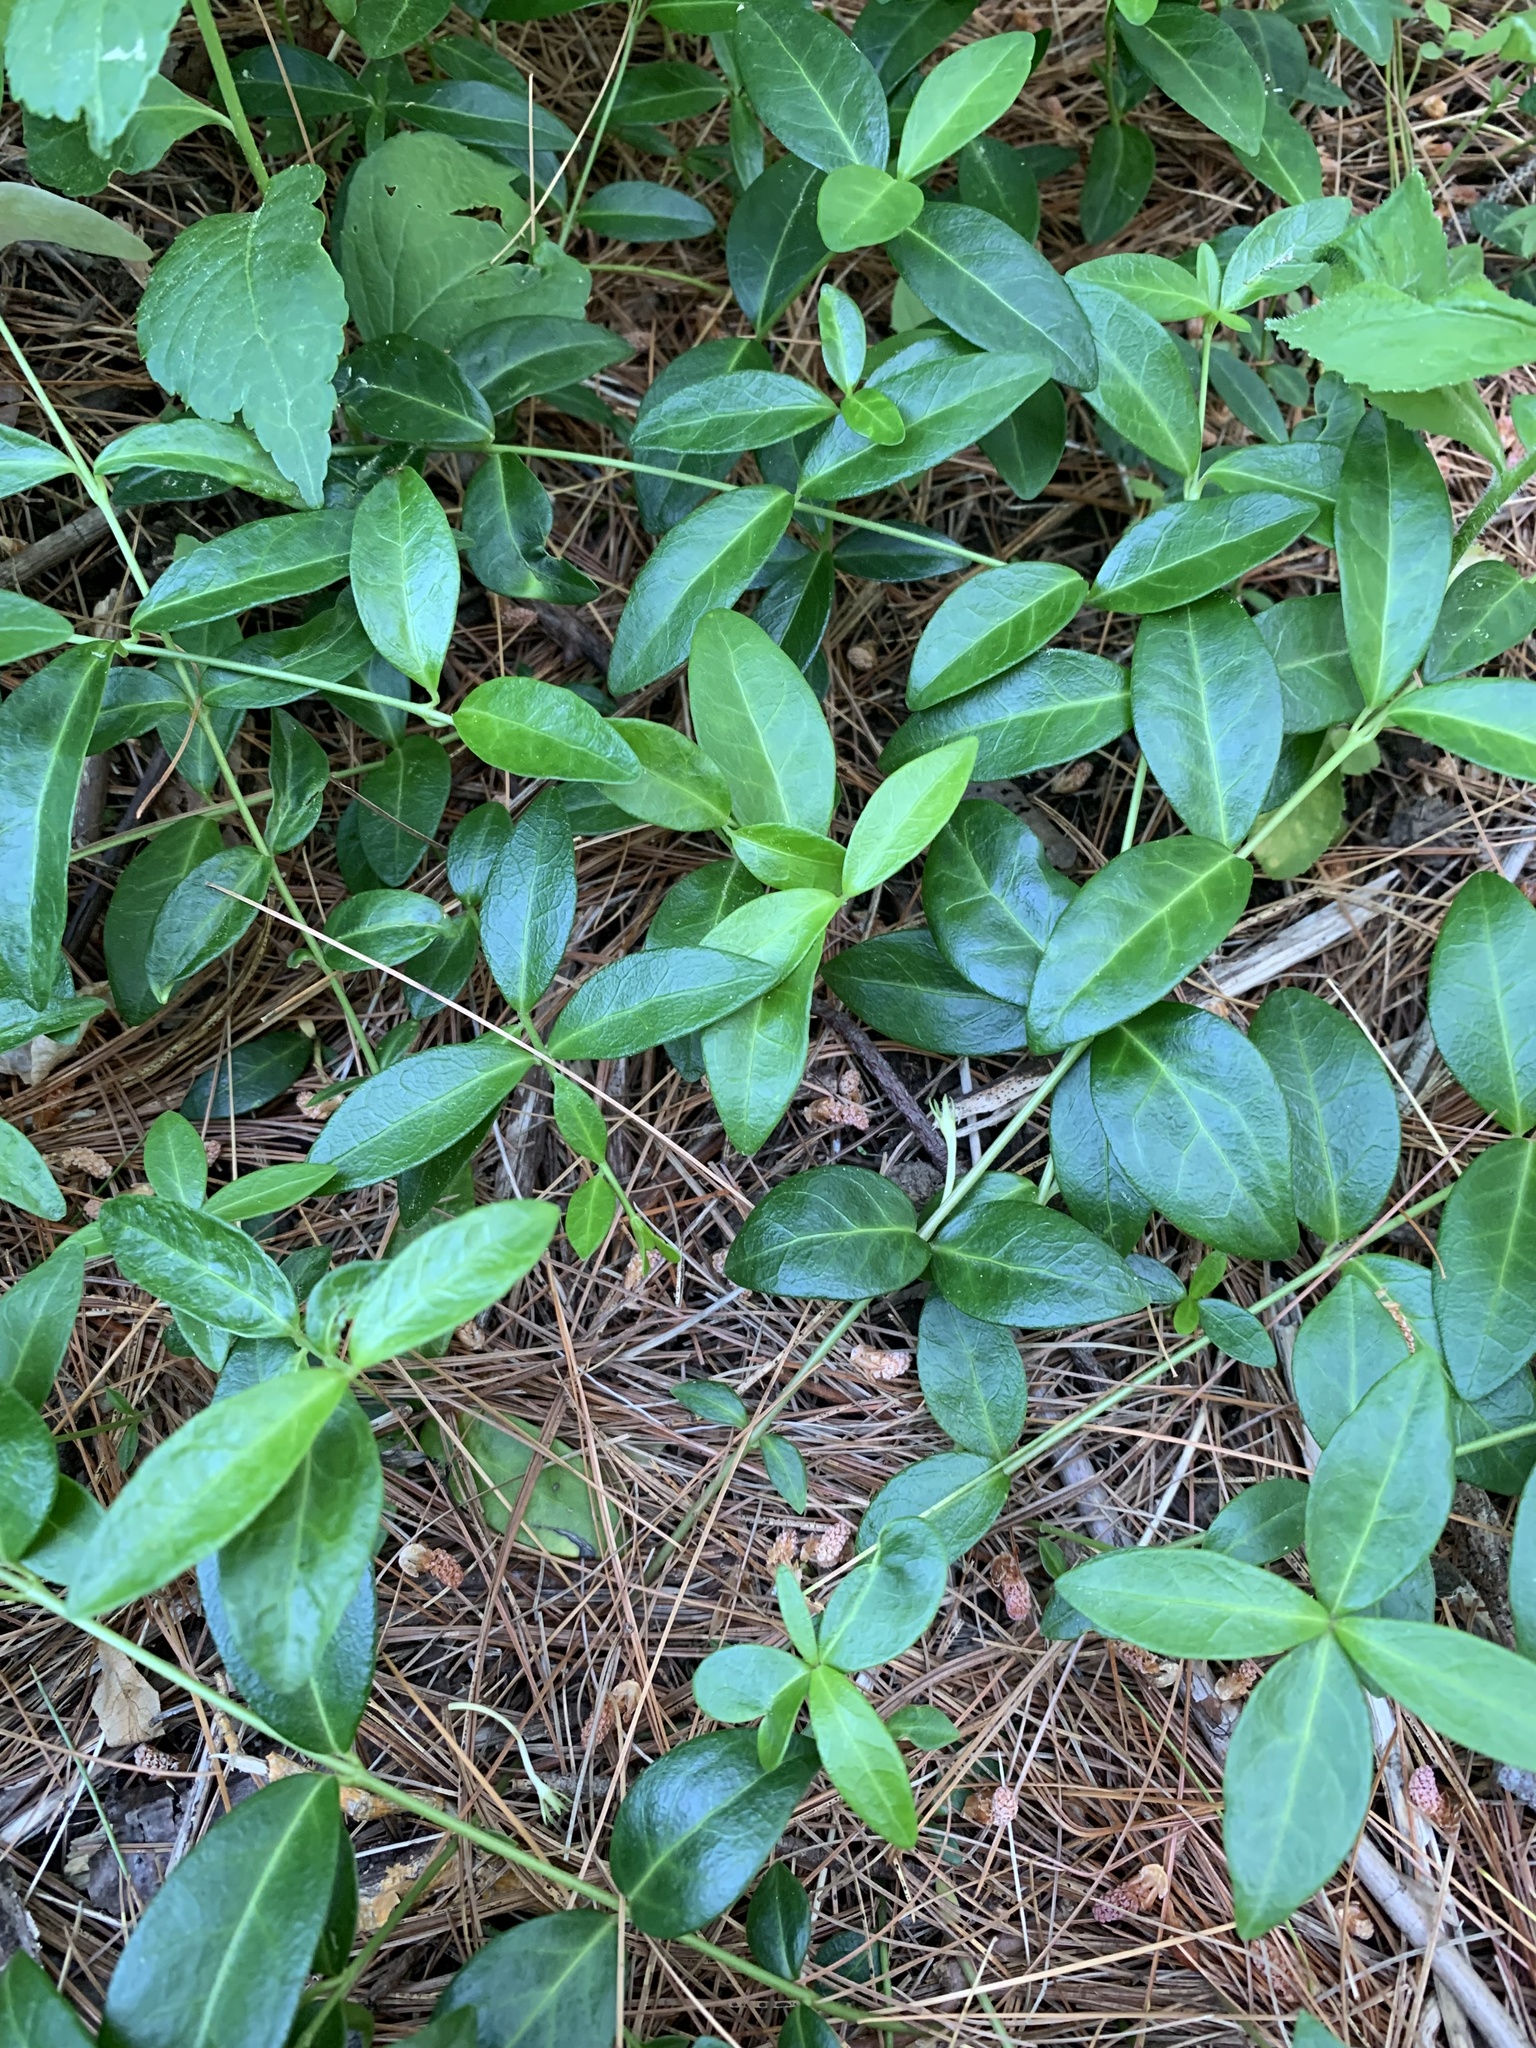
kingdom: Plantae
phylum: Tracheophyta
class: Magnoliopsida
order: Gentianales
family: Apocynaceae
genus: Vinca
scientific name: Vinca minor
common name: Lesser periwinkle
